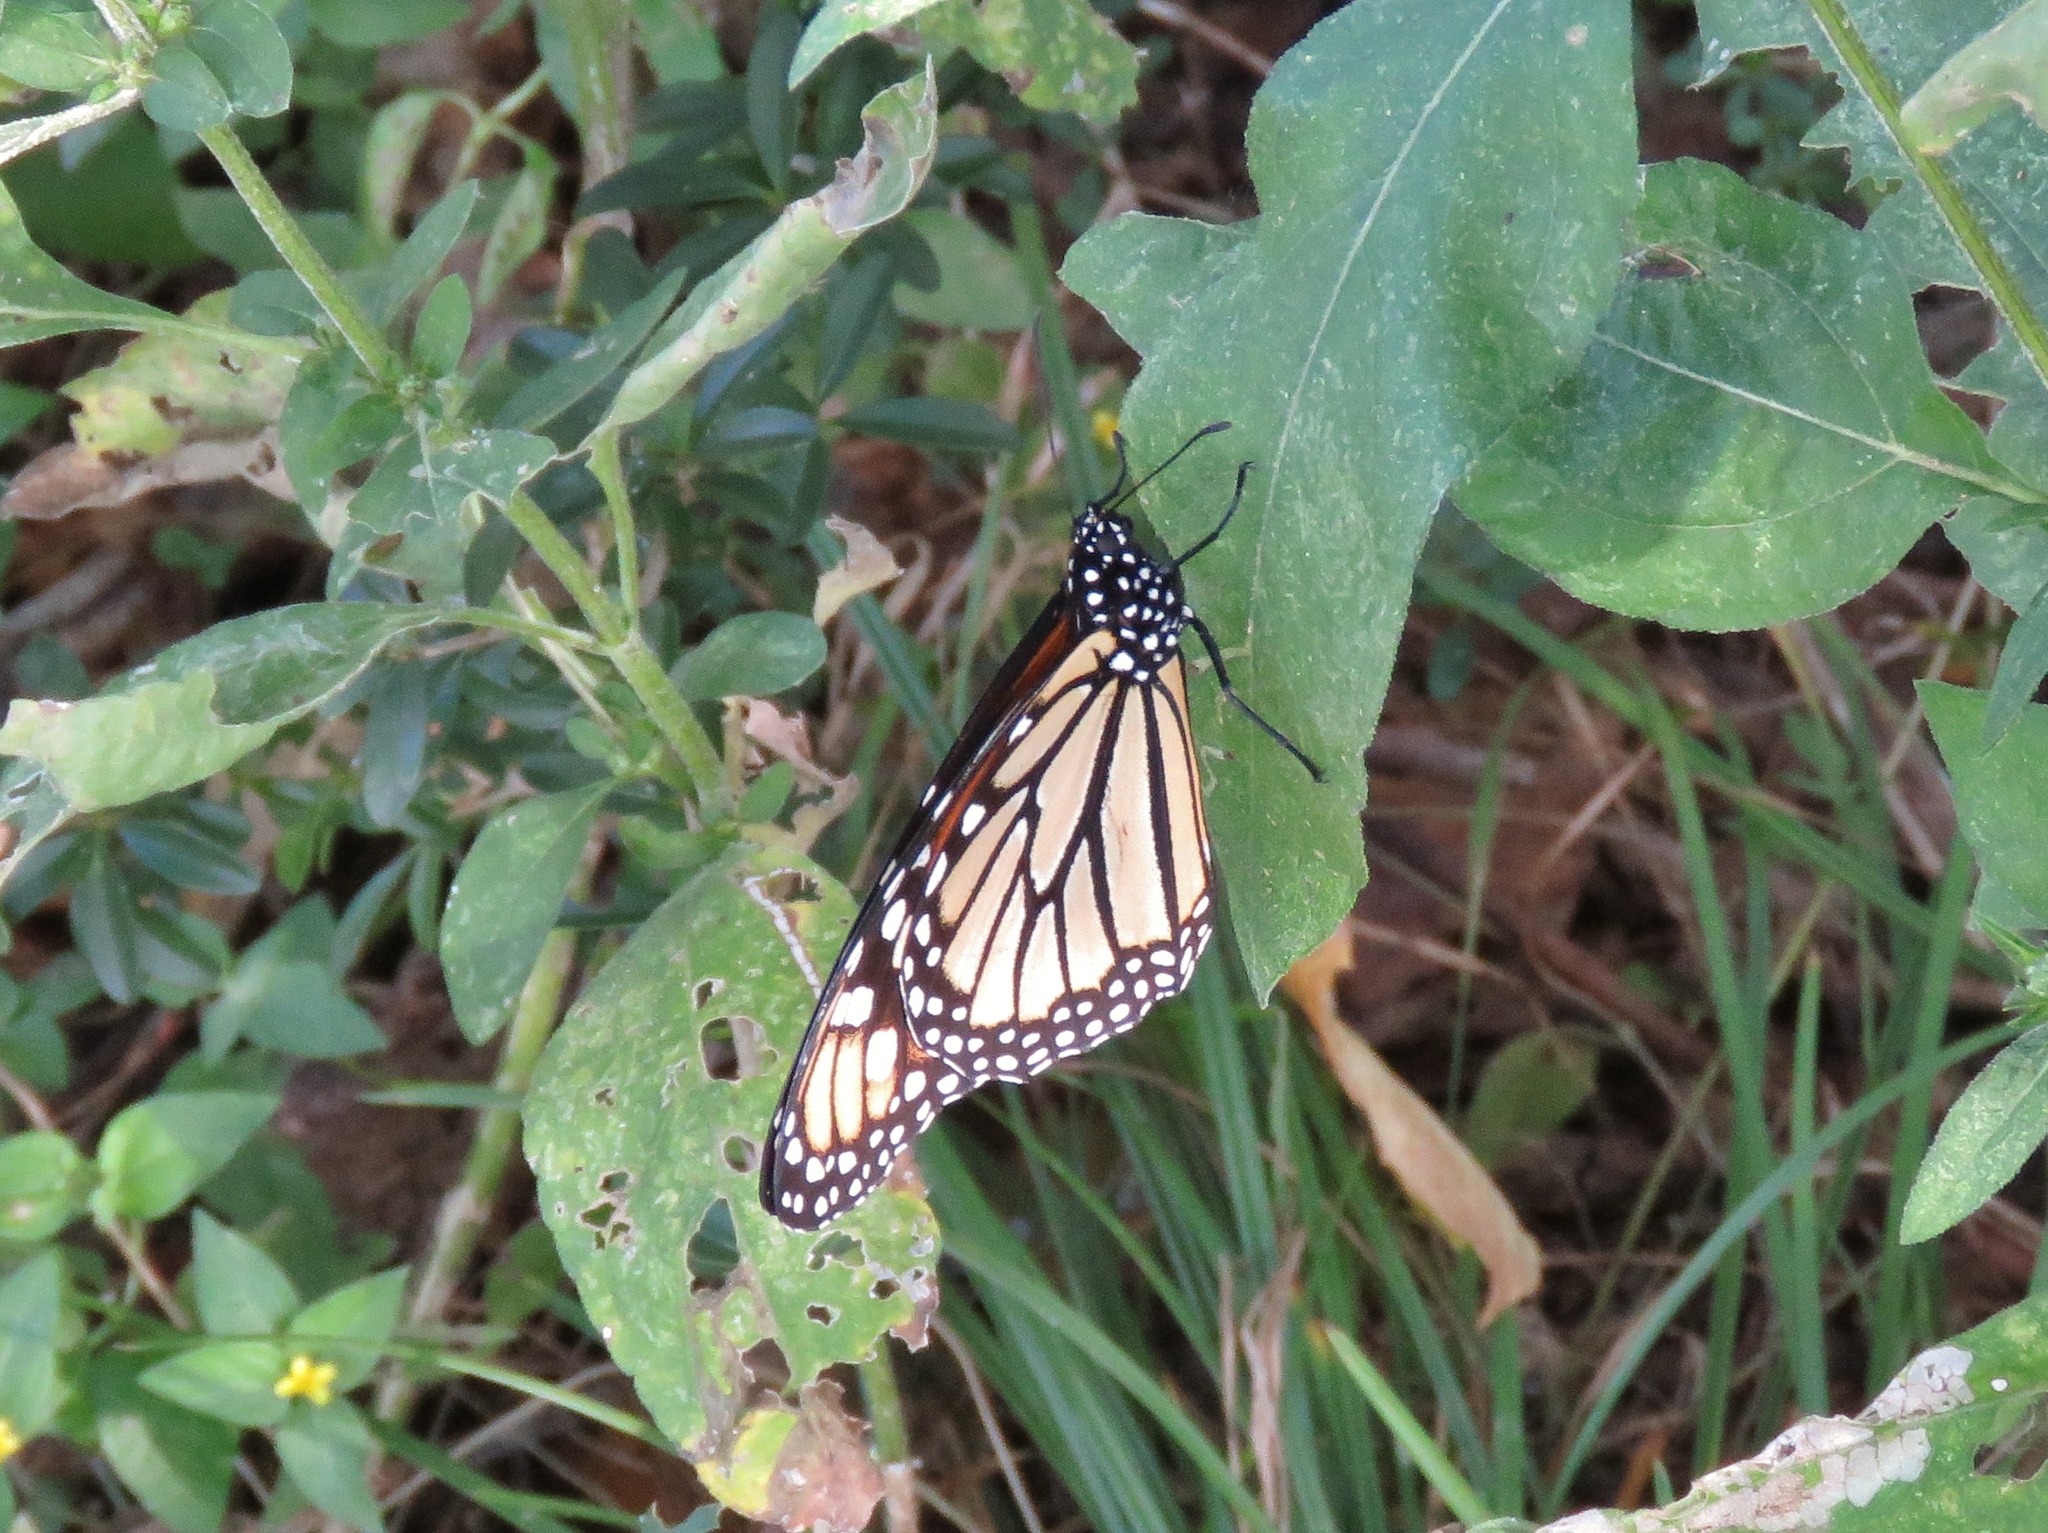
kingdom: Animalia
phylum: Arthropoda
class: Insecta
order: Lepidoptera
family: Nymphalidae
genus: Danaus
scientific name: Danaus plexippus
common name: Monarch
